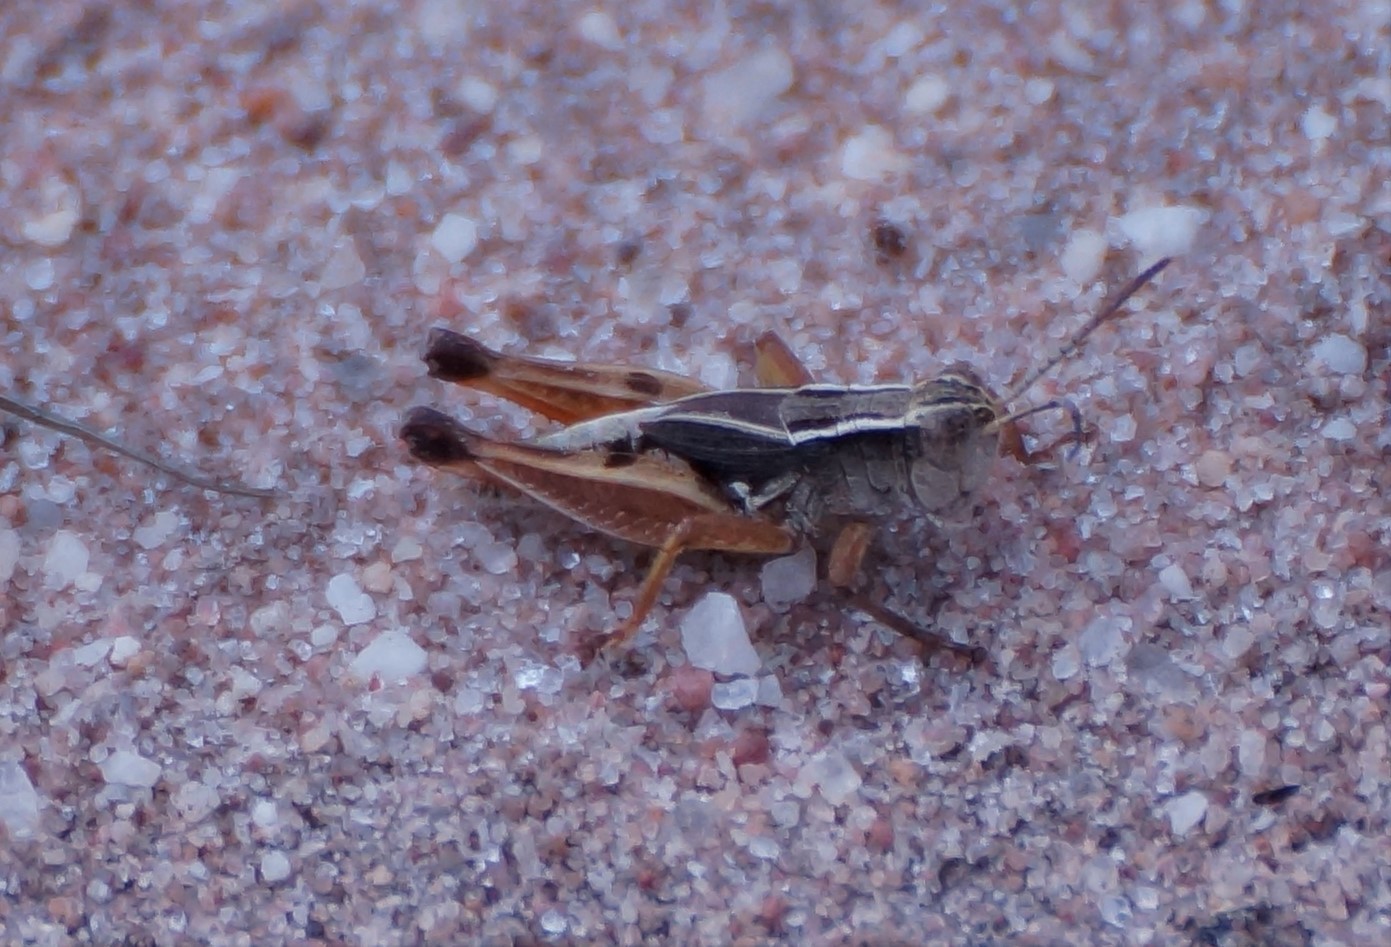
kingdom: Animalia
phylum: Arthropoda
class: Insecta
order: Orthoptera
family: Acrididae
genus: Phaulacridium
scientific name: Phaulacridium vittatum
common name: Wingless grasshopper
